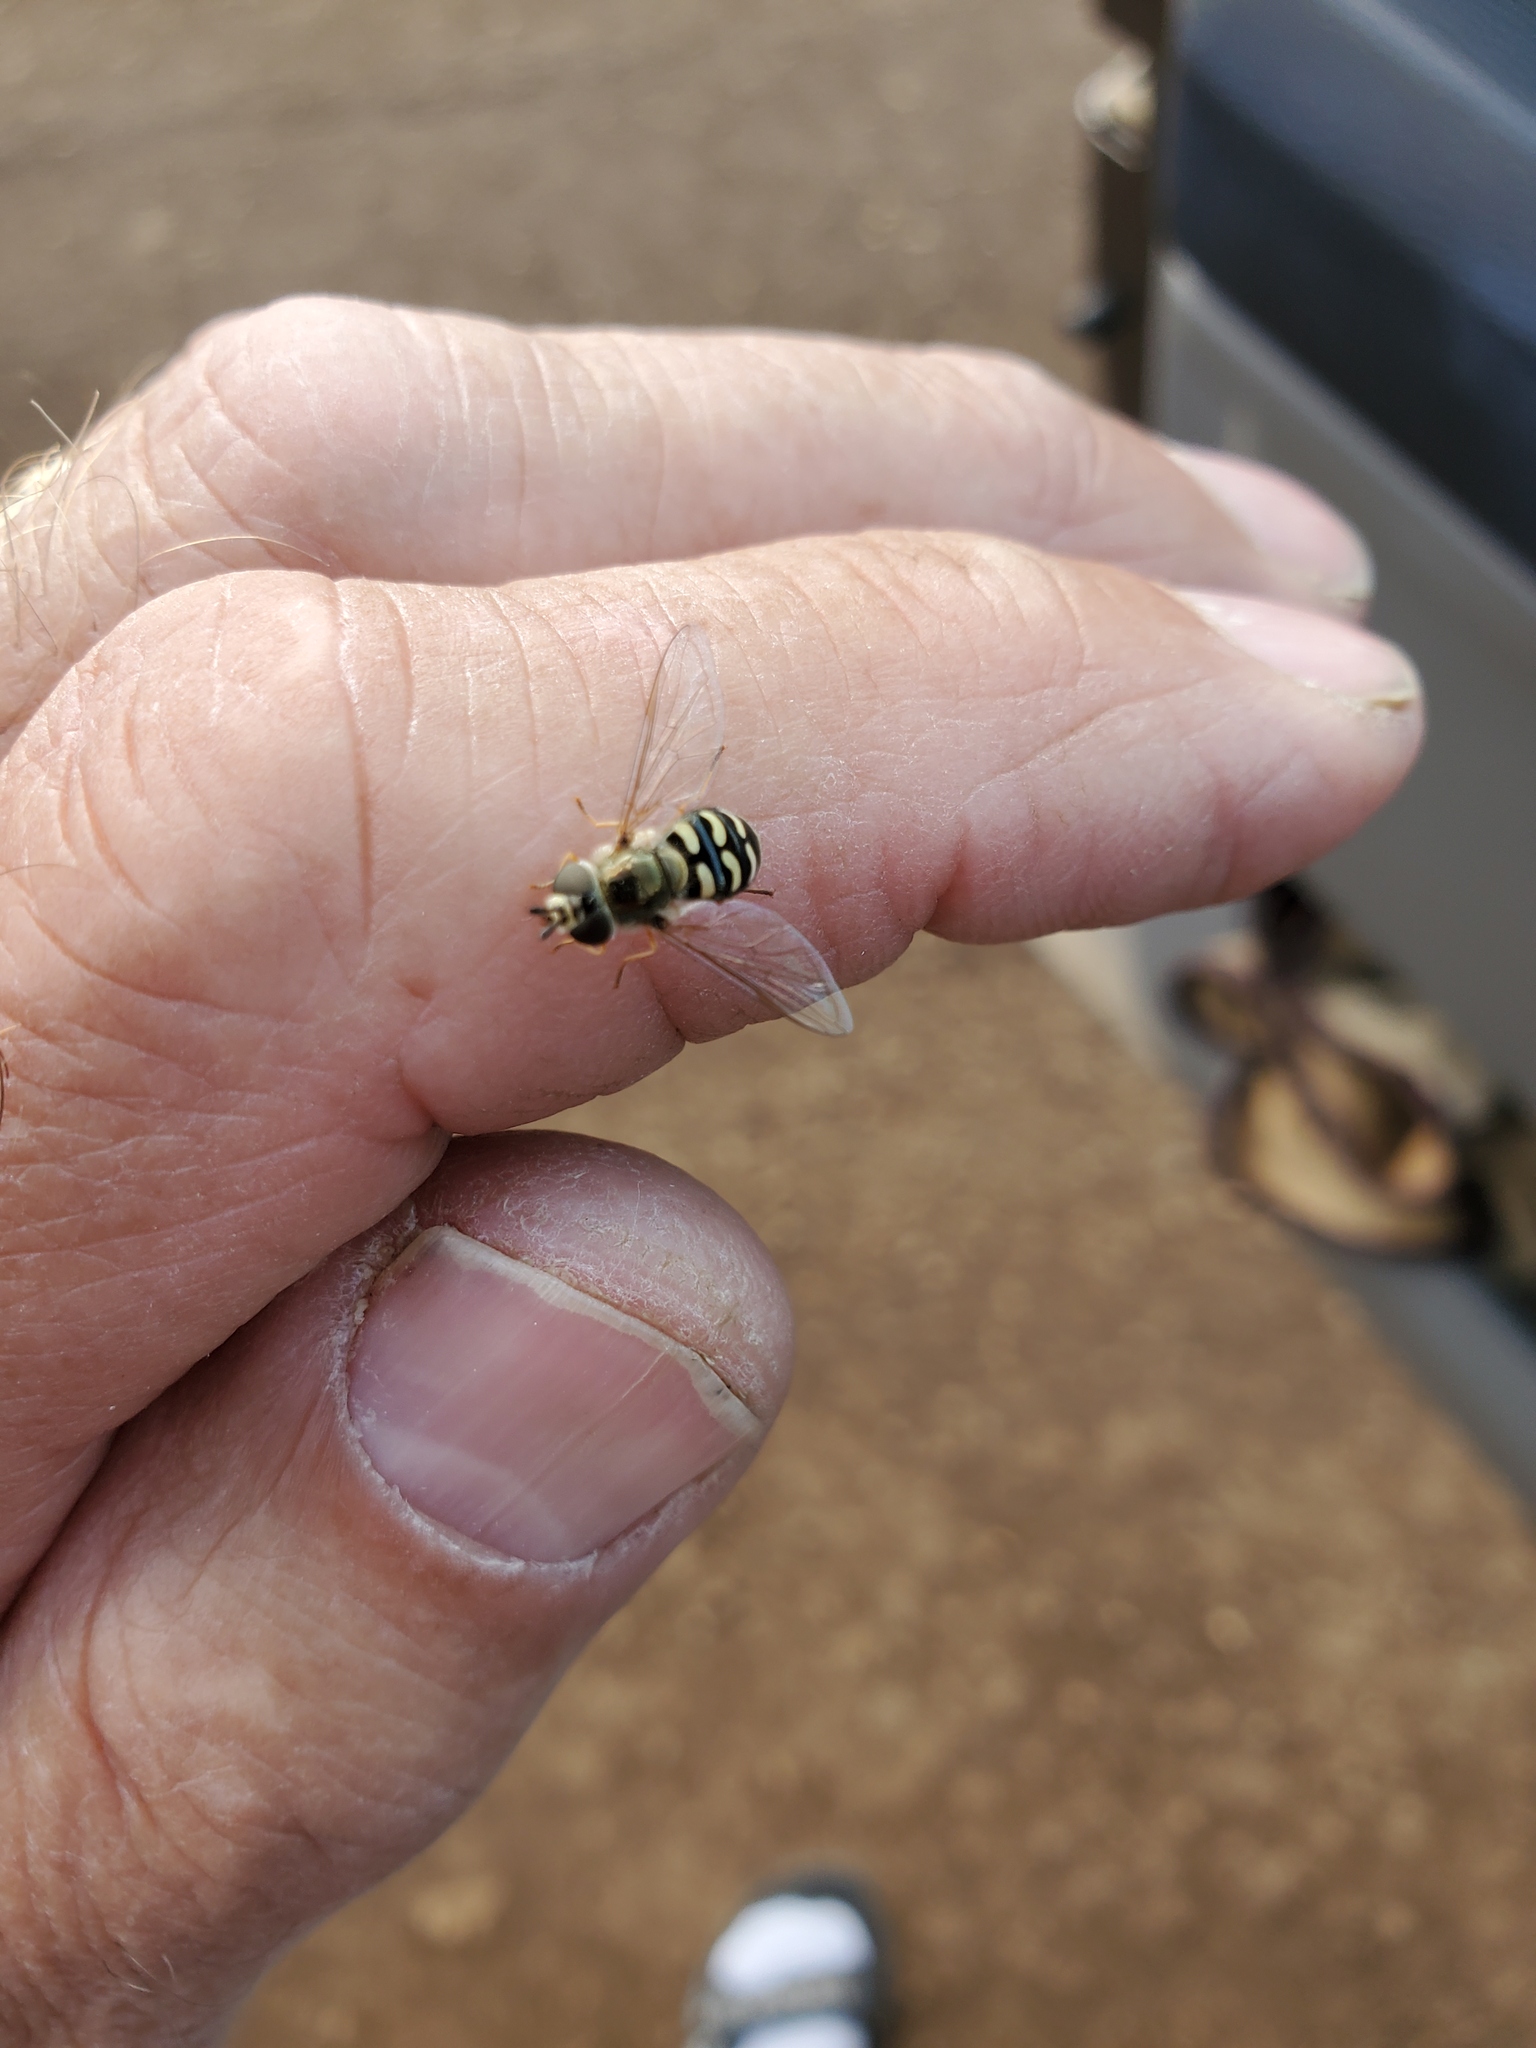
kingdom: Animalia
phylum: Arthropoda
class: Insecta
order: Diptera
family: Syrphidae
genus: Eupeodes
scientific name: Eupeodes volucris
